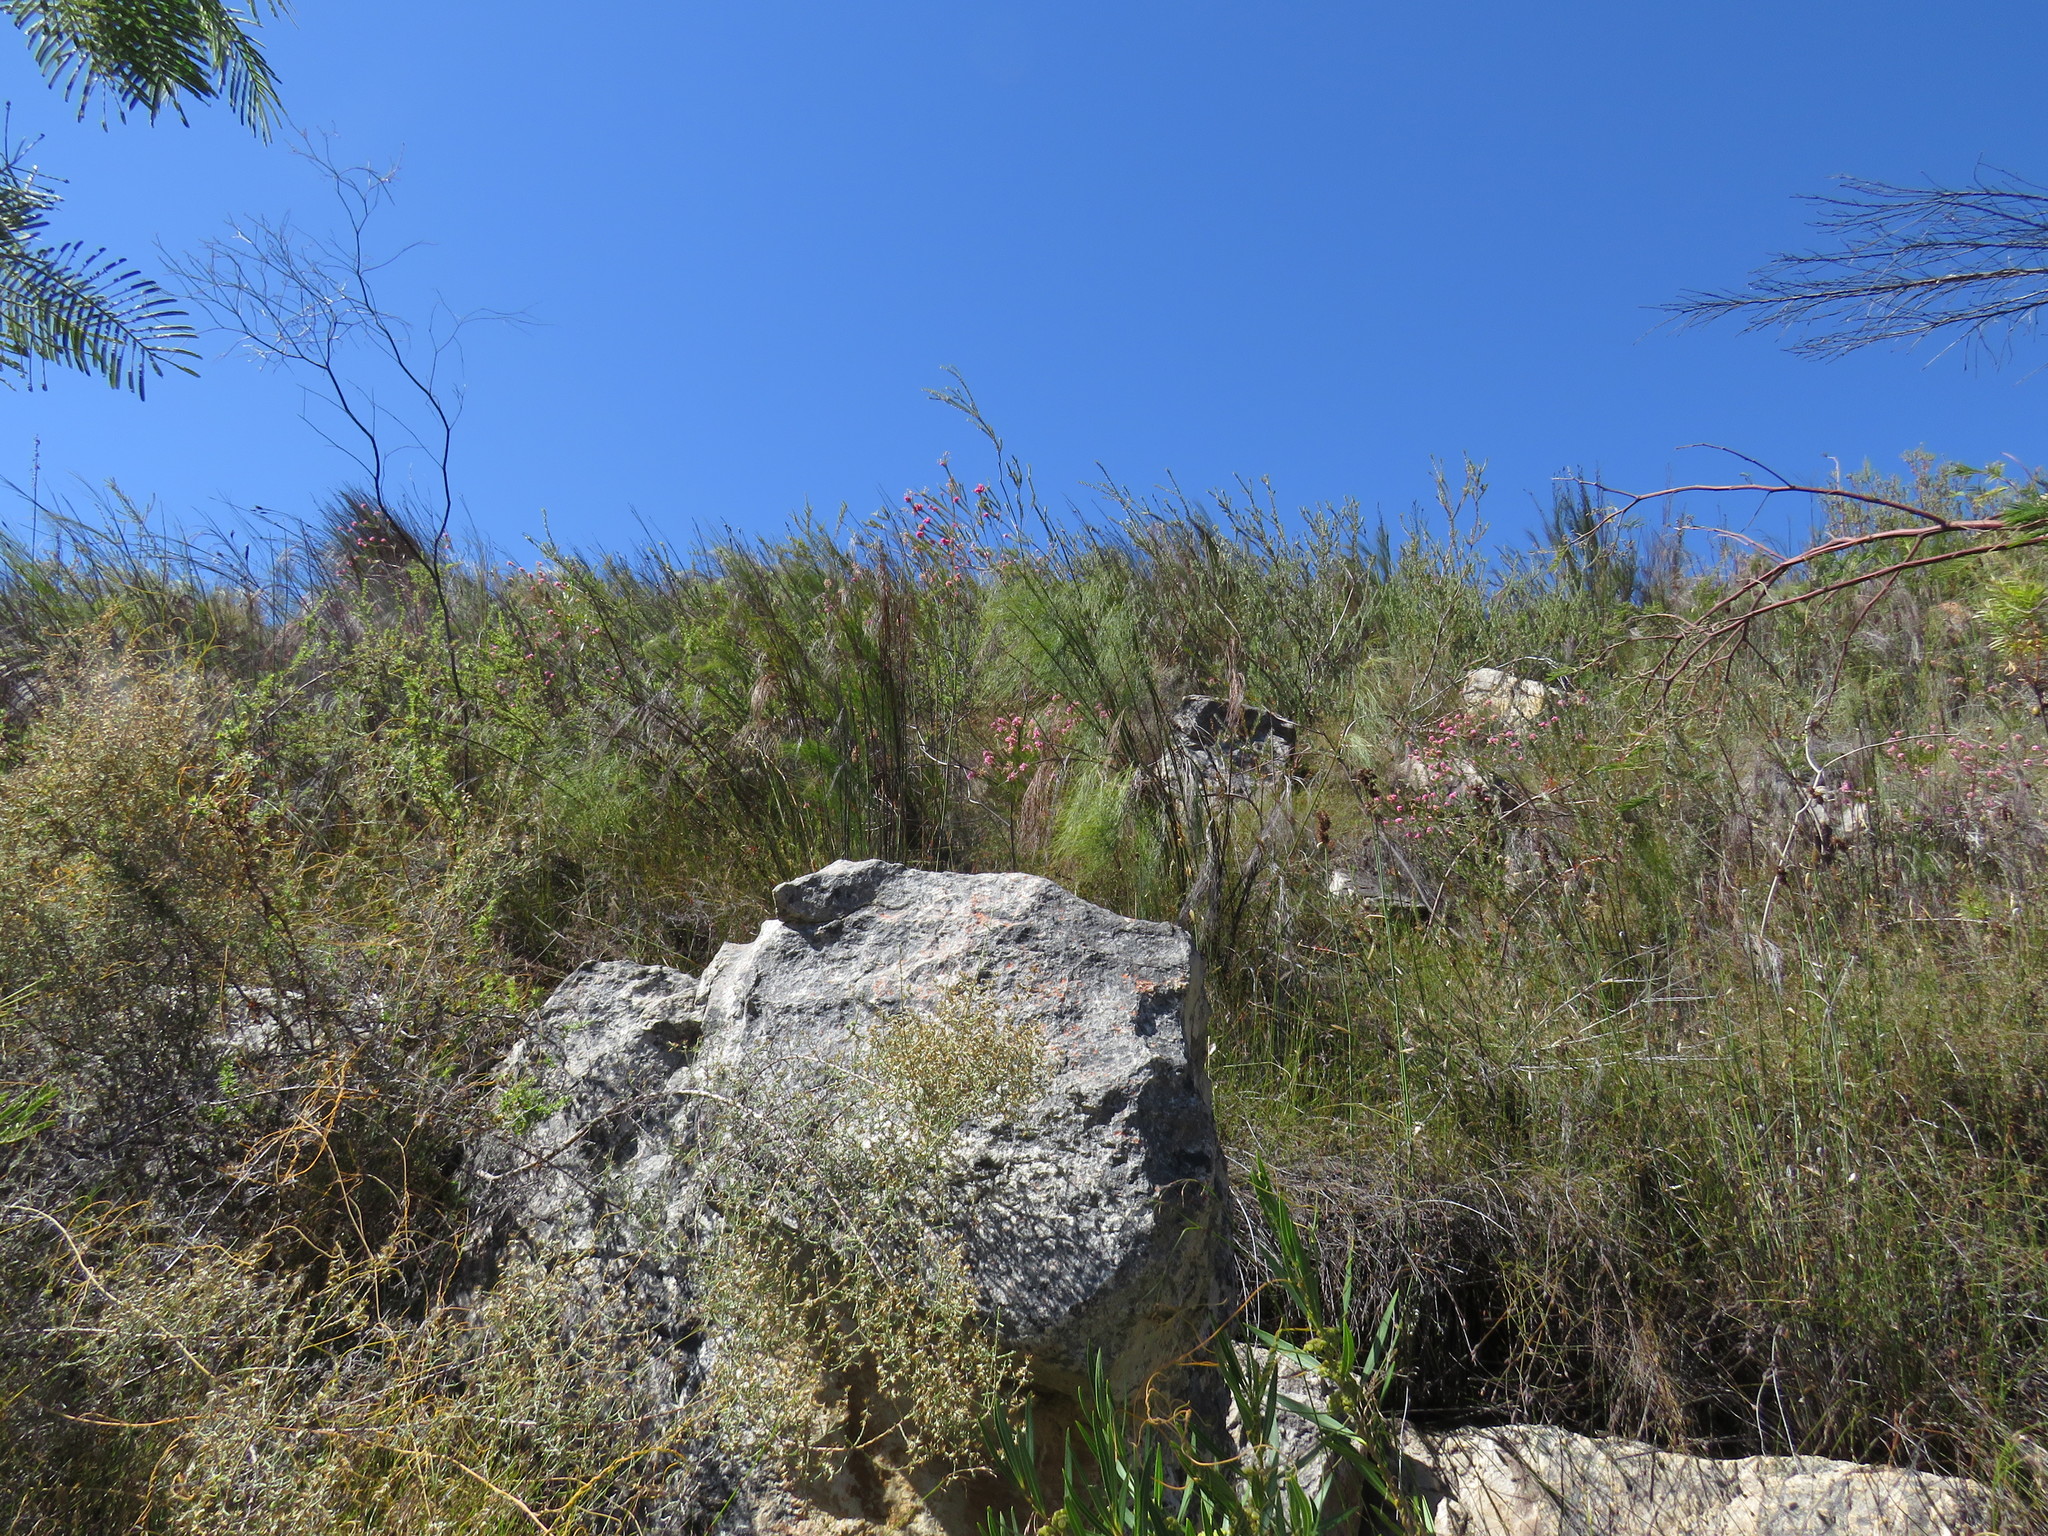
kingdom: Plantae
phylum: Tracheophyta
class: Magnoliopsida
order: Proteales
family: Proteaceae
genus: Leucospermum
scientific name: Leucospermum calligerum
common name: Arid pincushion
